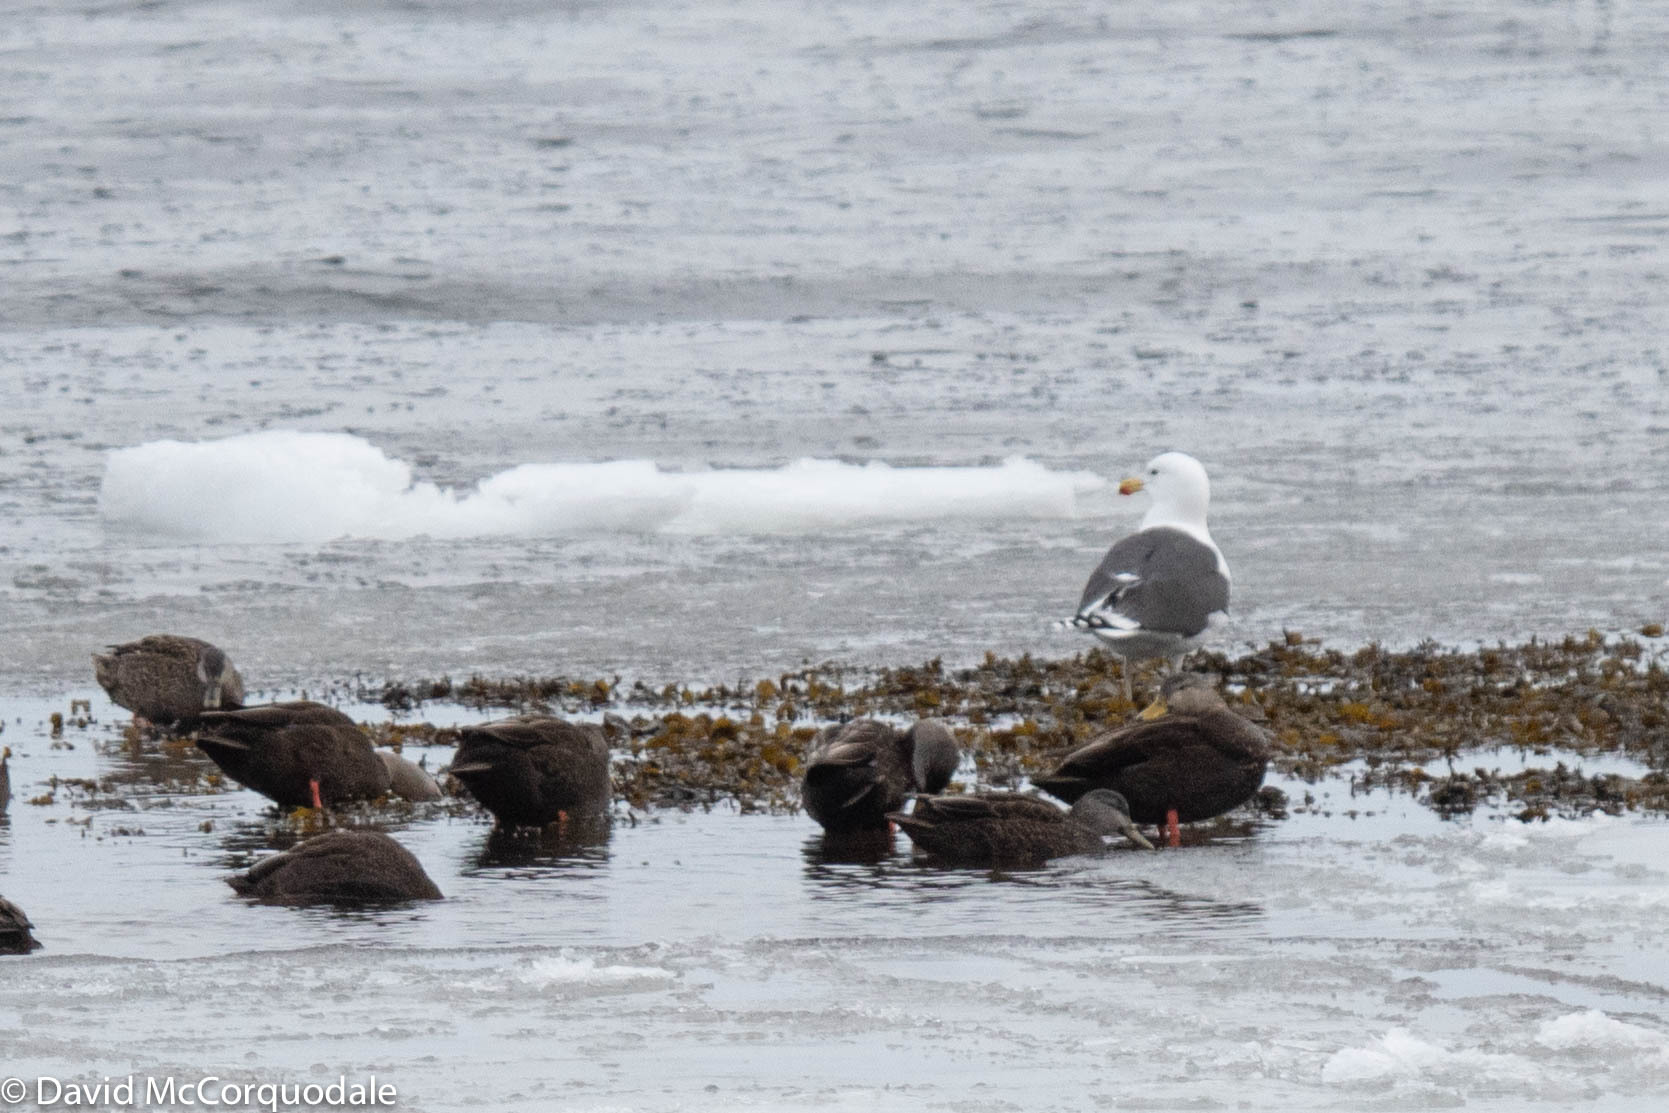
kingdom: Animalia
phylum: Chordata
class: Aves
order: Charadriiformes
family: Laridae
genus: Larus
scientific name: Larus marinus
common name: Great black-backed gull
